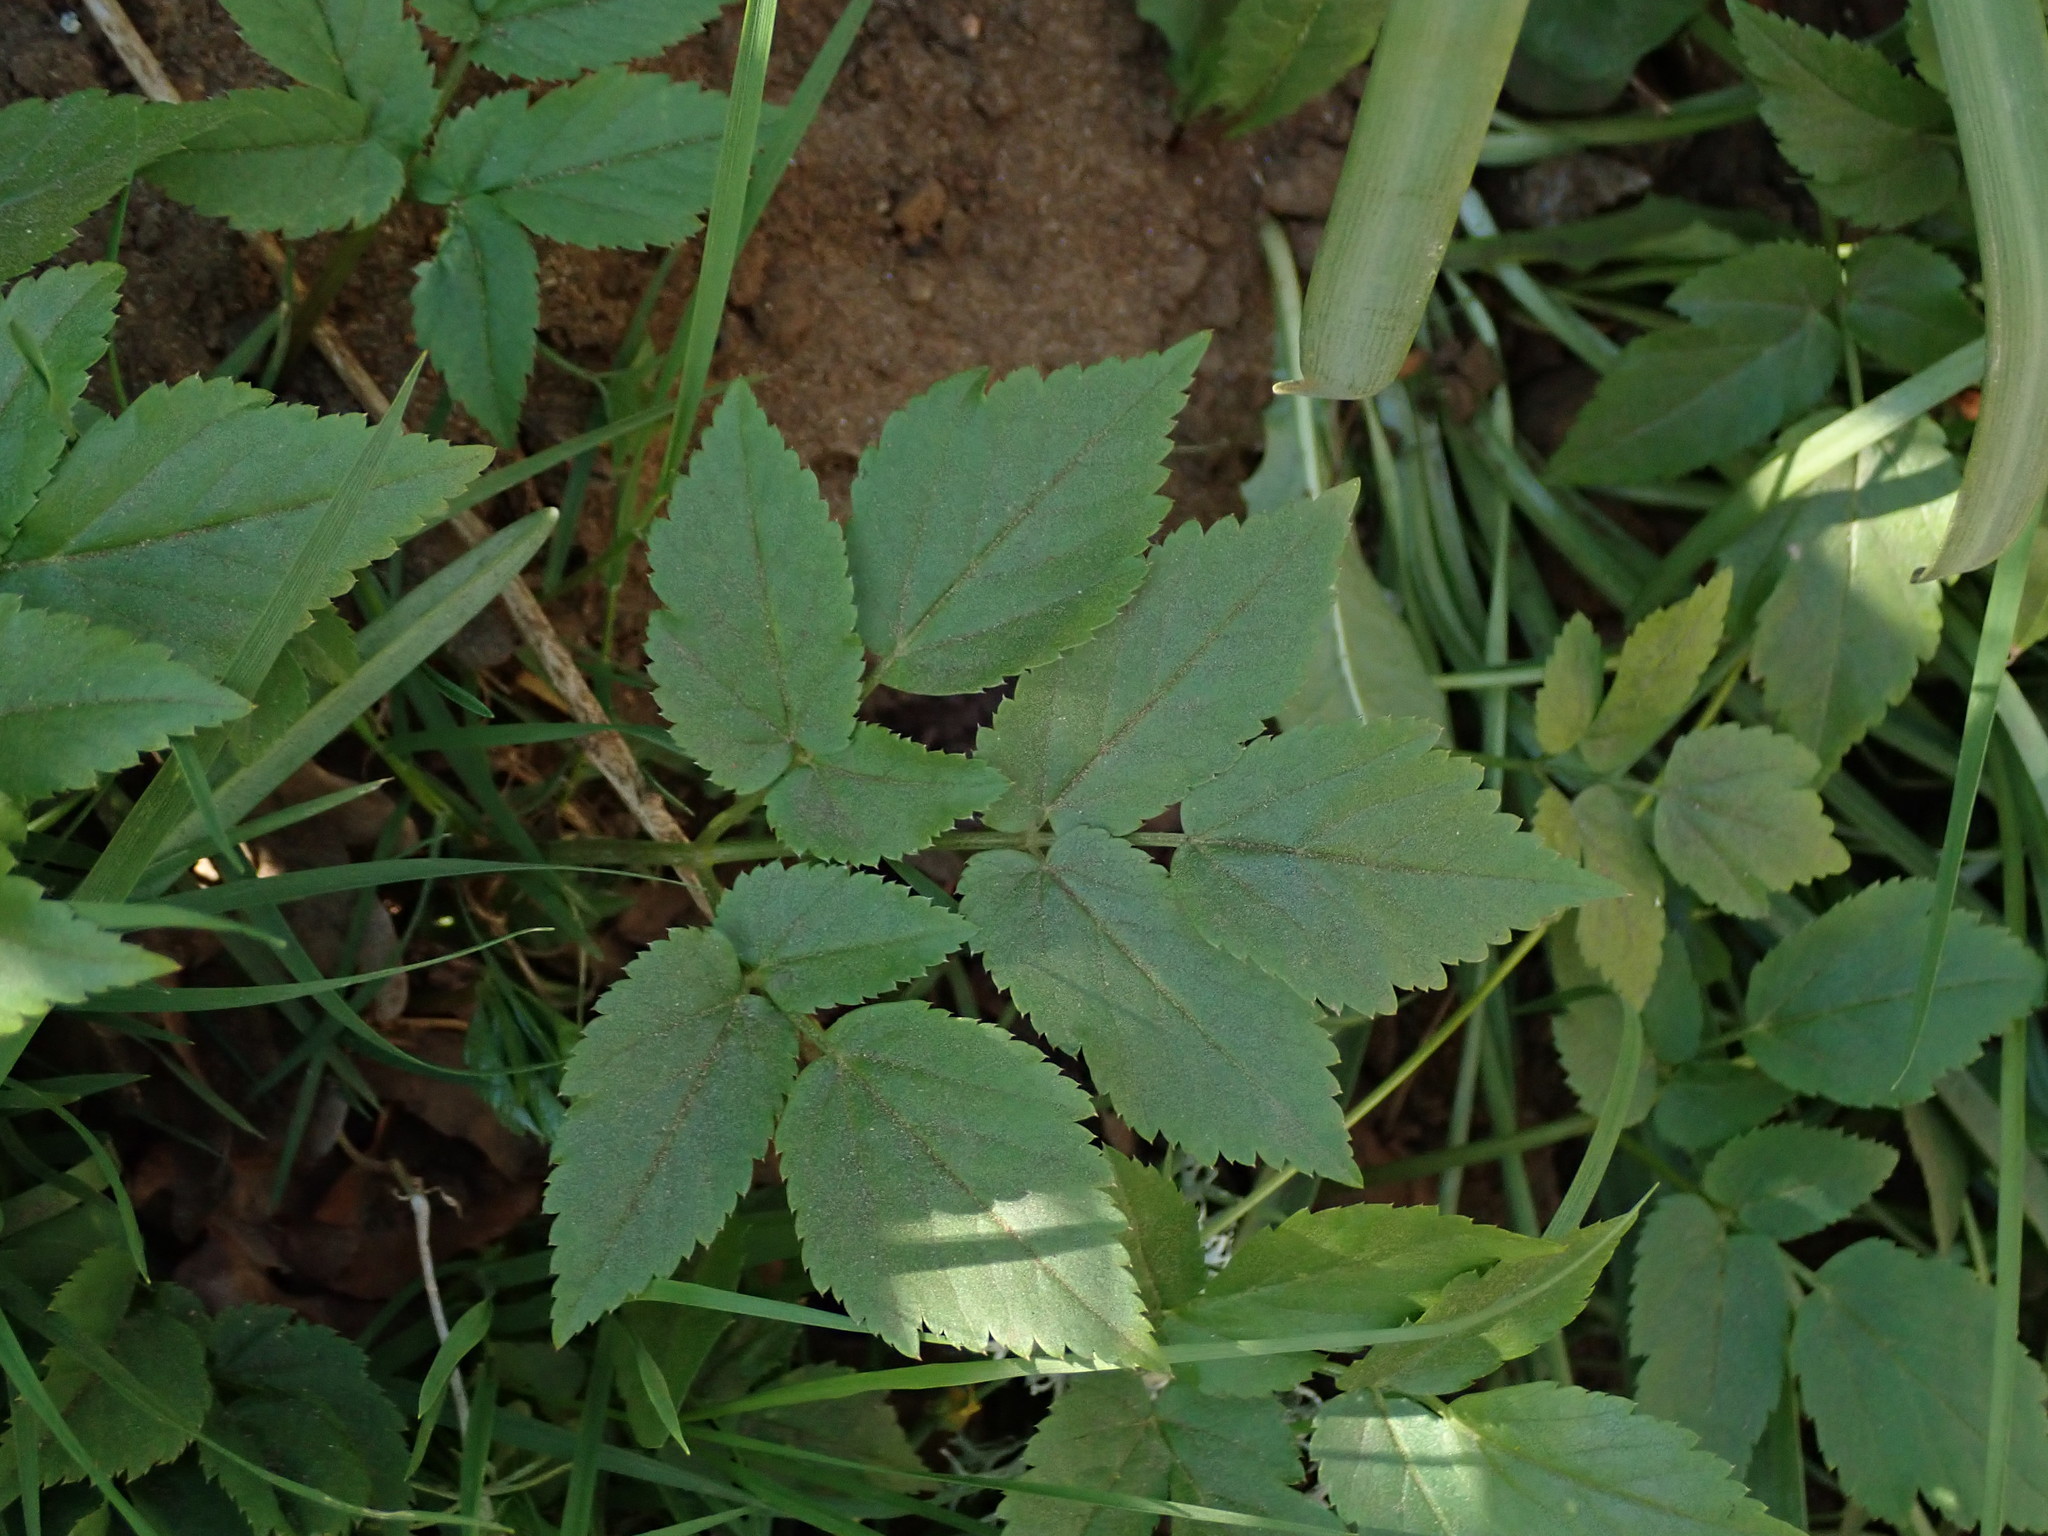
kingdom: Plantae
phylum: Tracheophyta
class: Magnoliopsida
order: Apiales
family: Apiaceae
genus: Aegopodium
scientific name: Aegopodium podagraria
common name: Ground-elder
